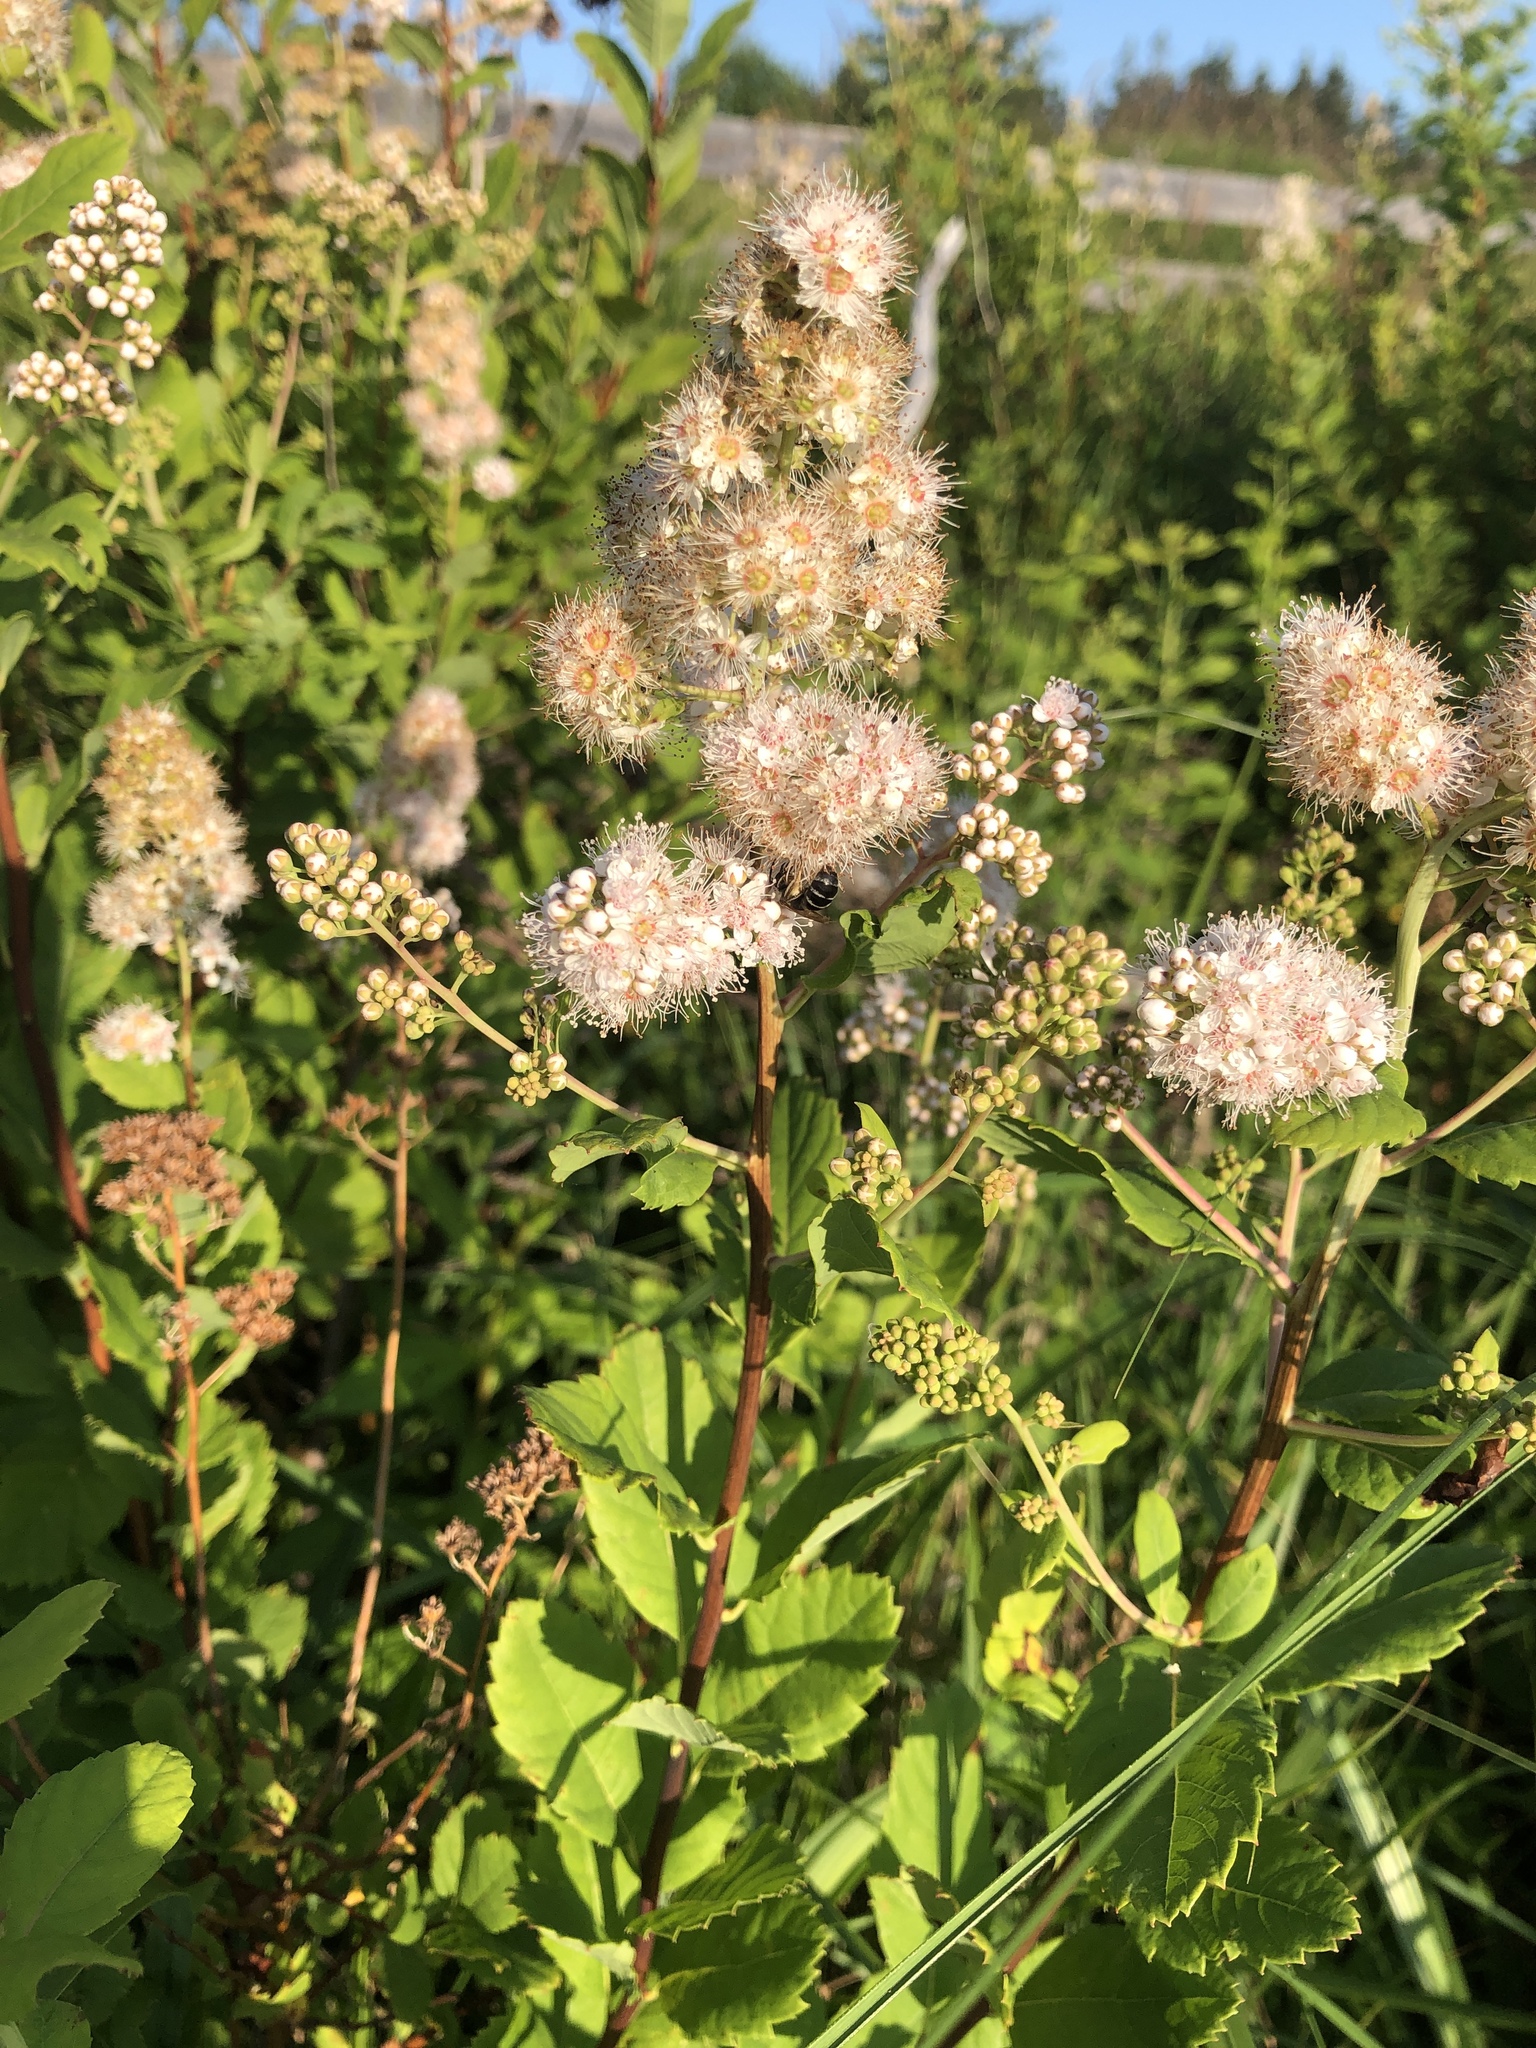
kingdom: Plantae
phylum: Tracheophyta
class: Magnoliopsida
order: Rosales
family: Rosaceae
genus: Spiraea
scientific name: Spiraea tomentosa
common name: Hardhack
